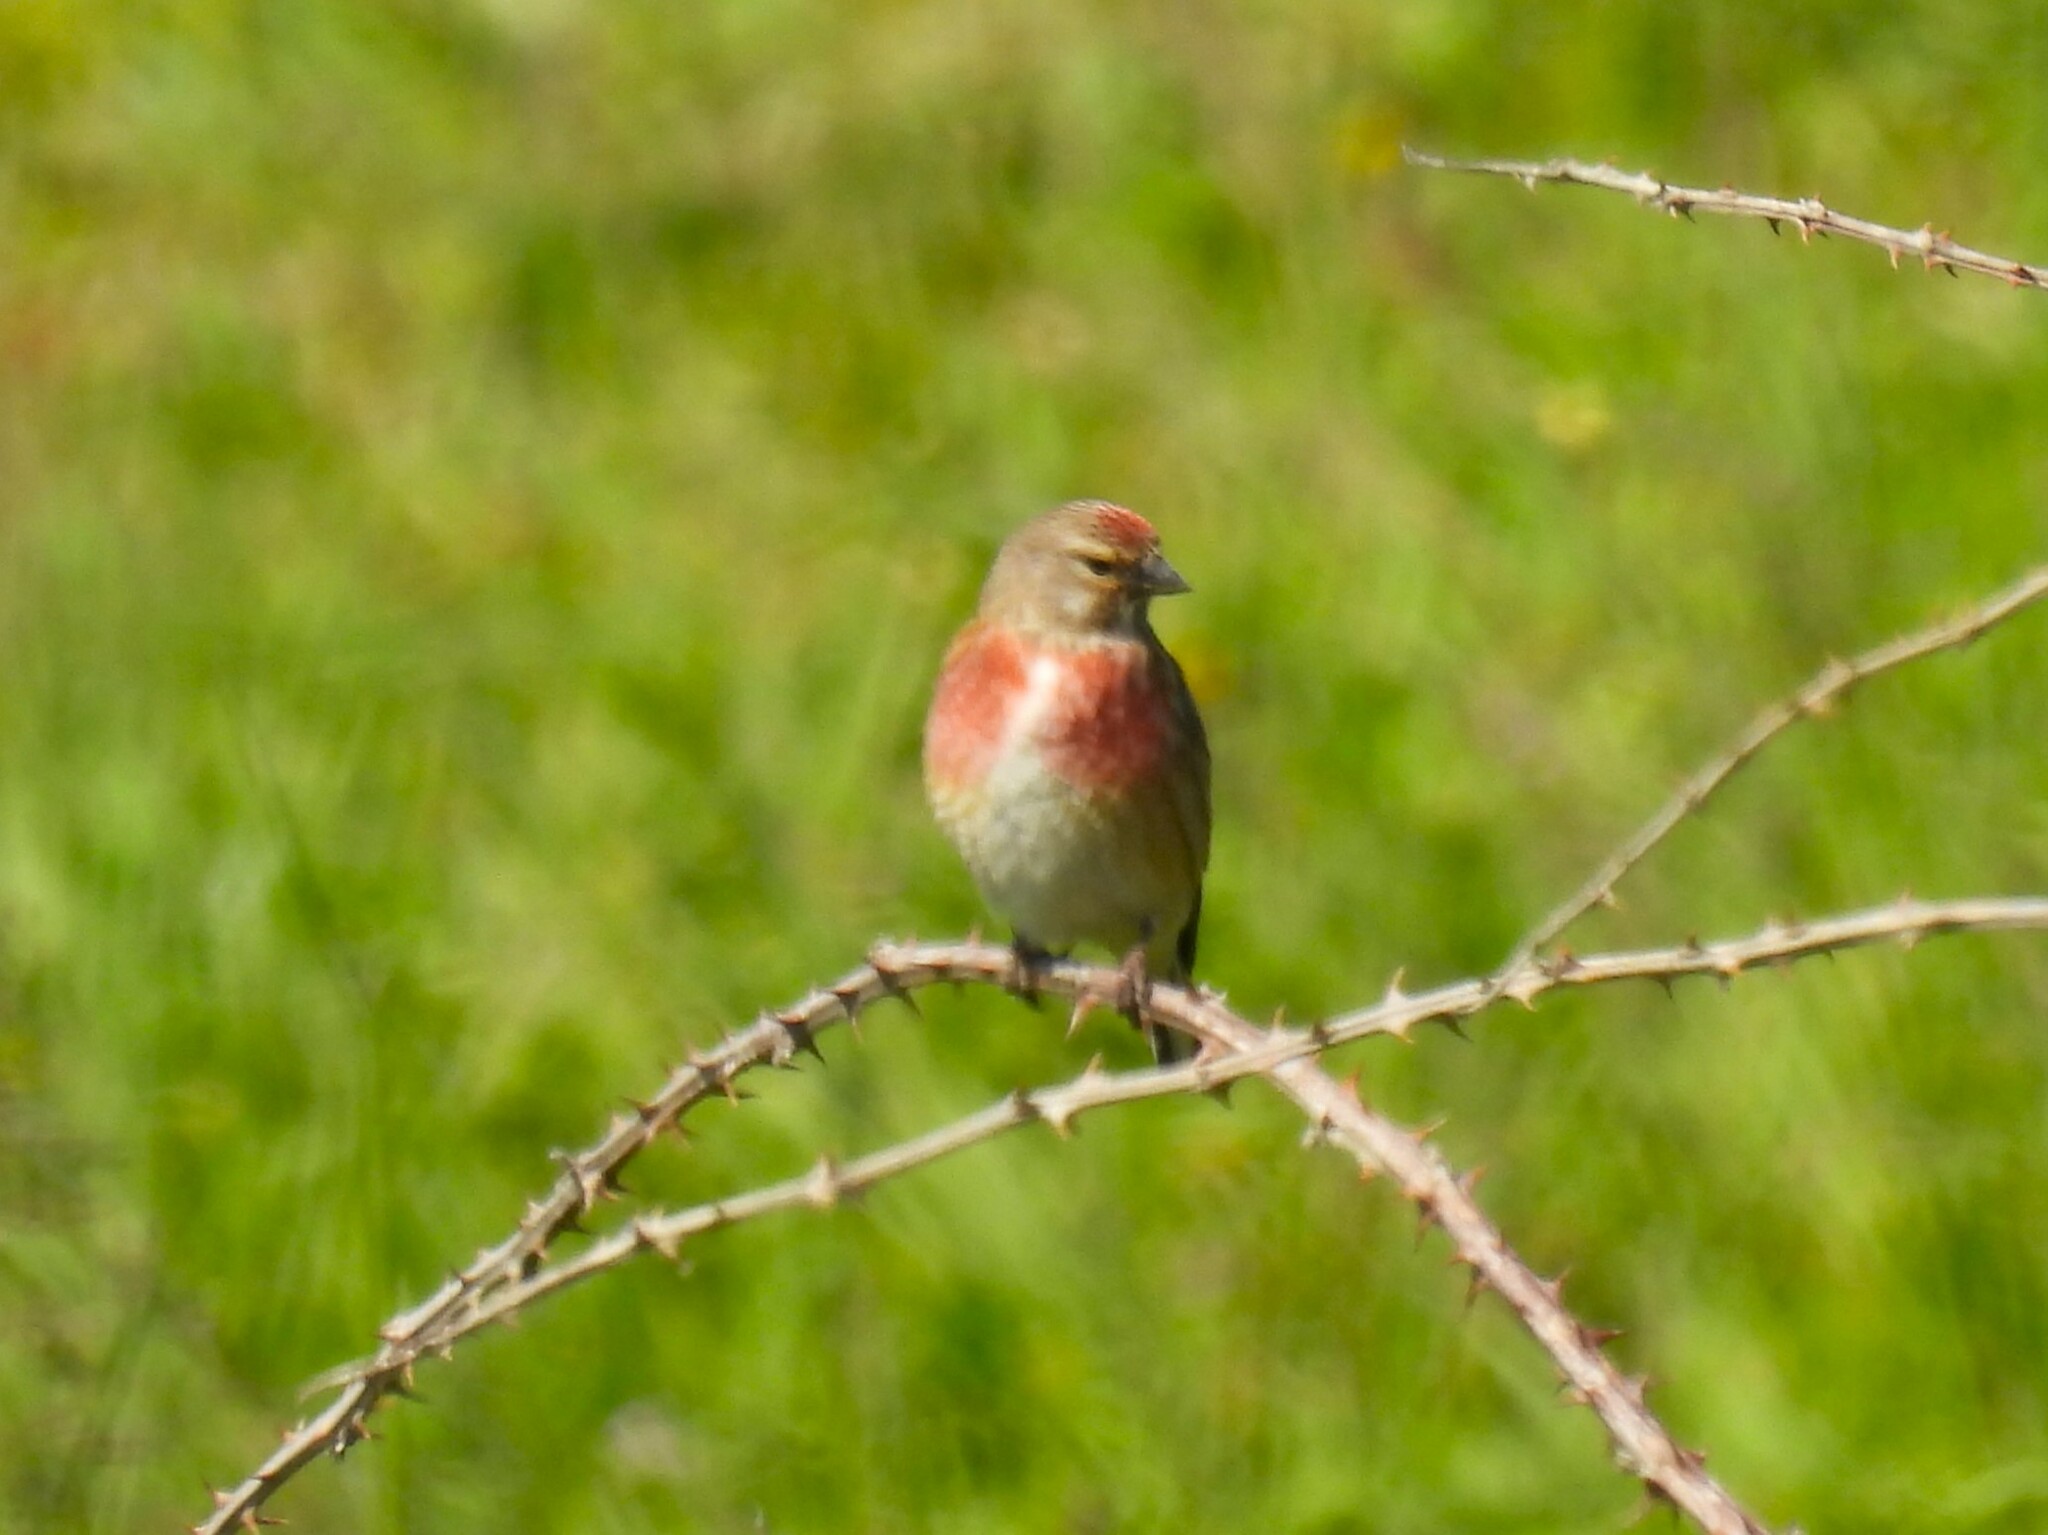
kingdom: Animalia
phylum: Chordata
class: Aves
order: Passeriformes
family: Fringillidae
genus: Linaria
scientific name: Linaria cannabina
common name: Common linnet
